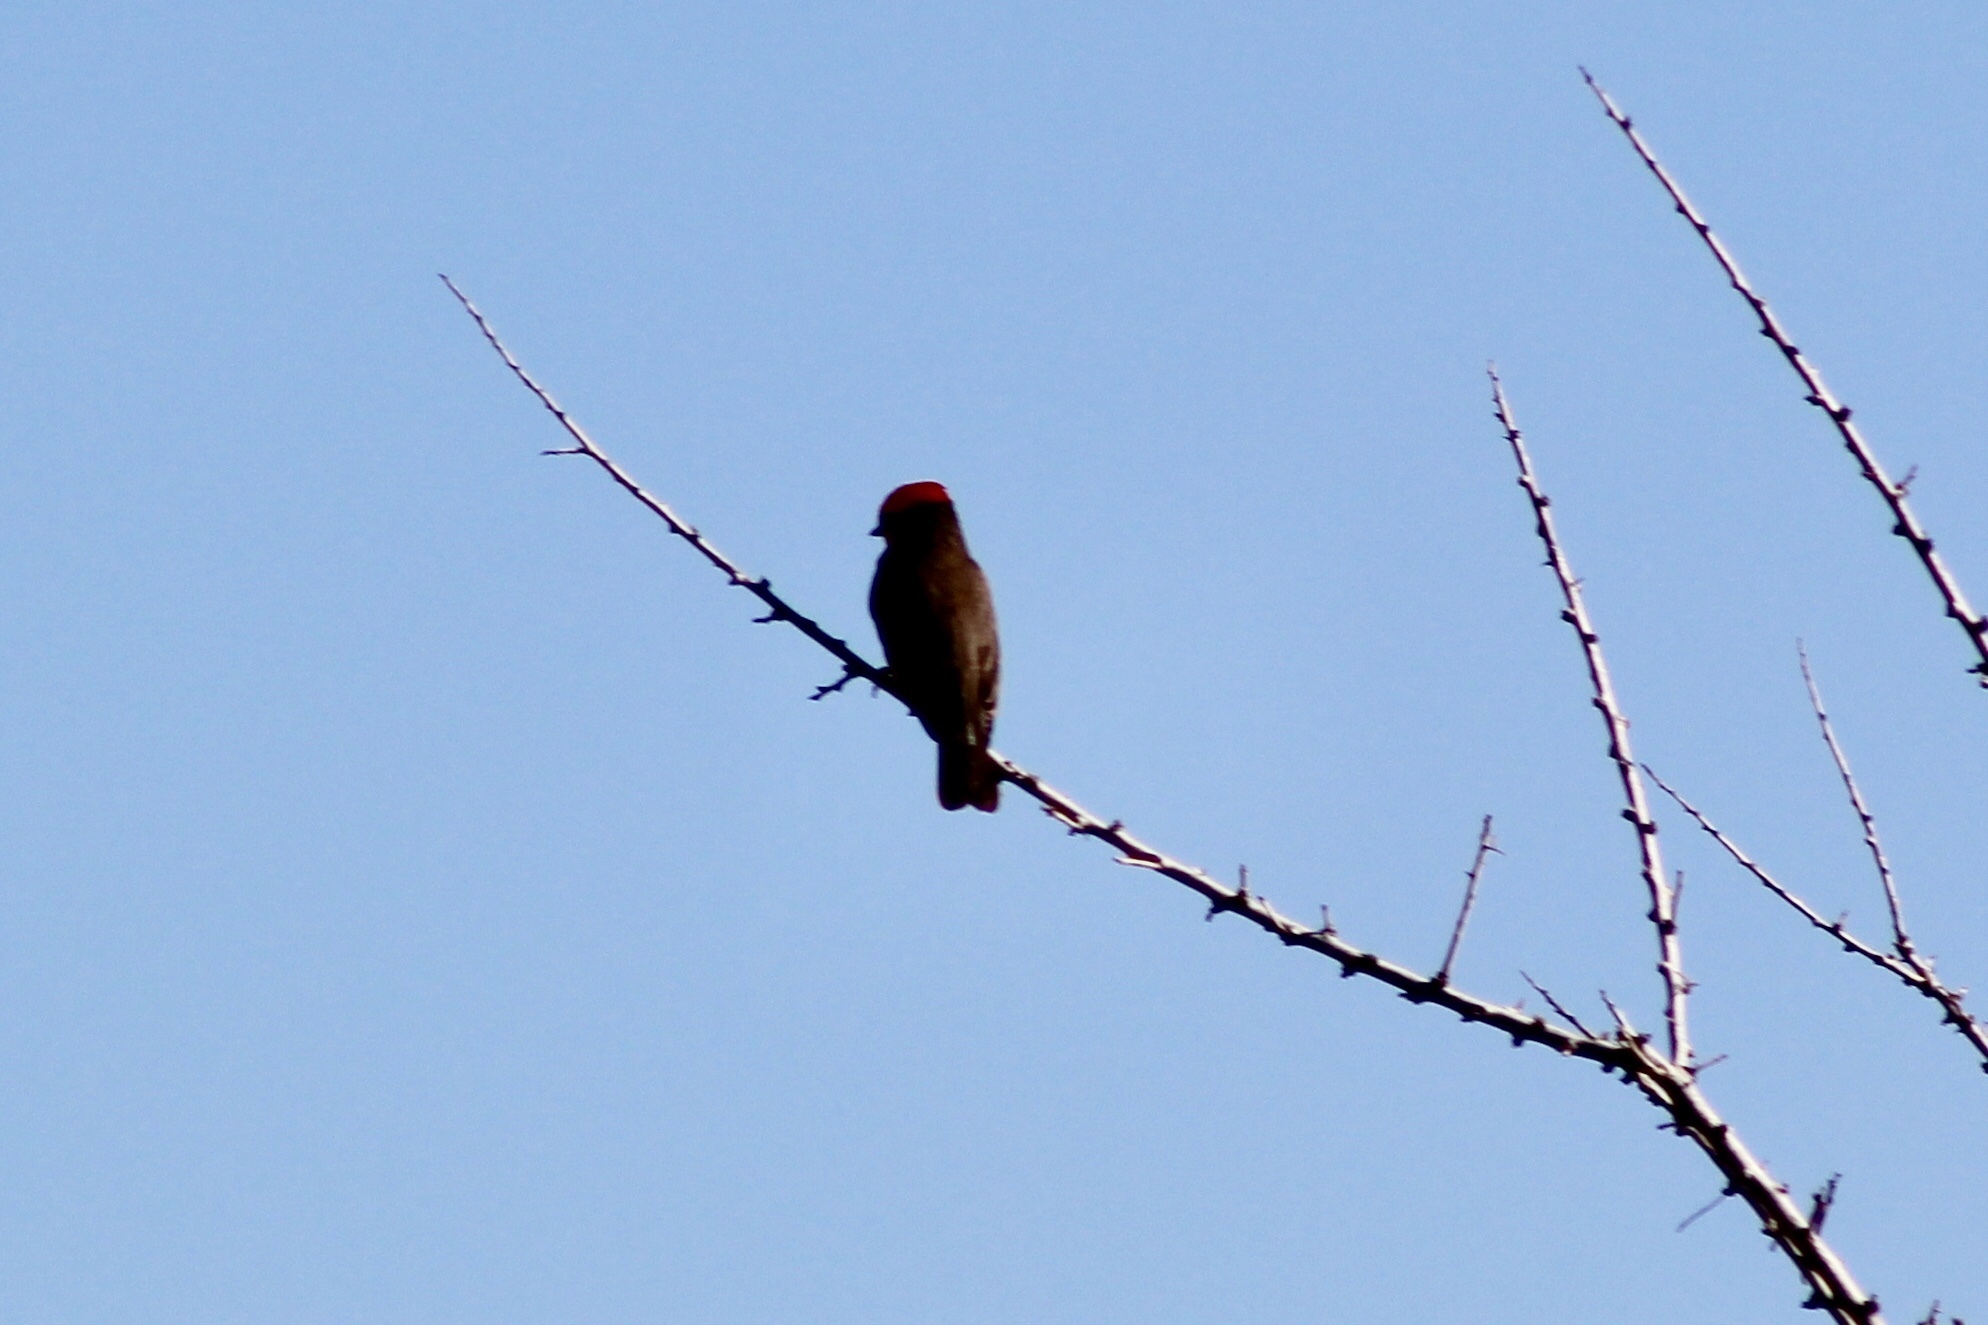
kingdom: Animalia
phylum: Chordata
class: Aves
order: Passeriformes
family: Tyrannidae
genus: Pyrocephalus
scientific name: Pyrocephalus rubinus
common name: Vermilion flycatcher
